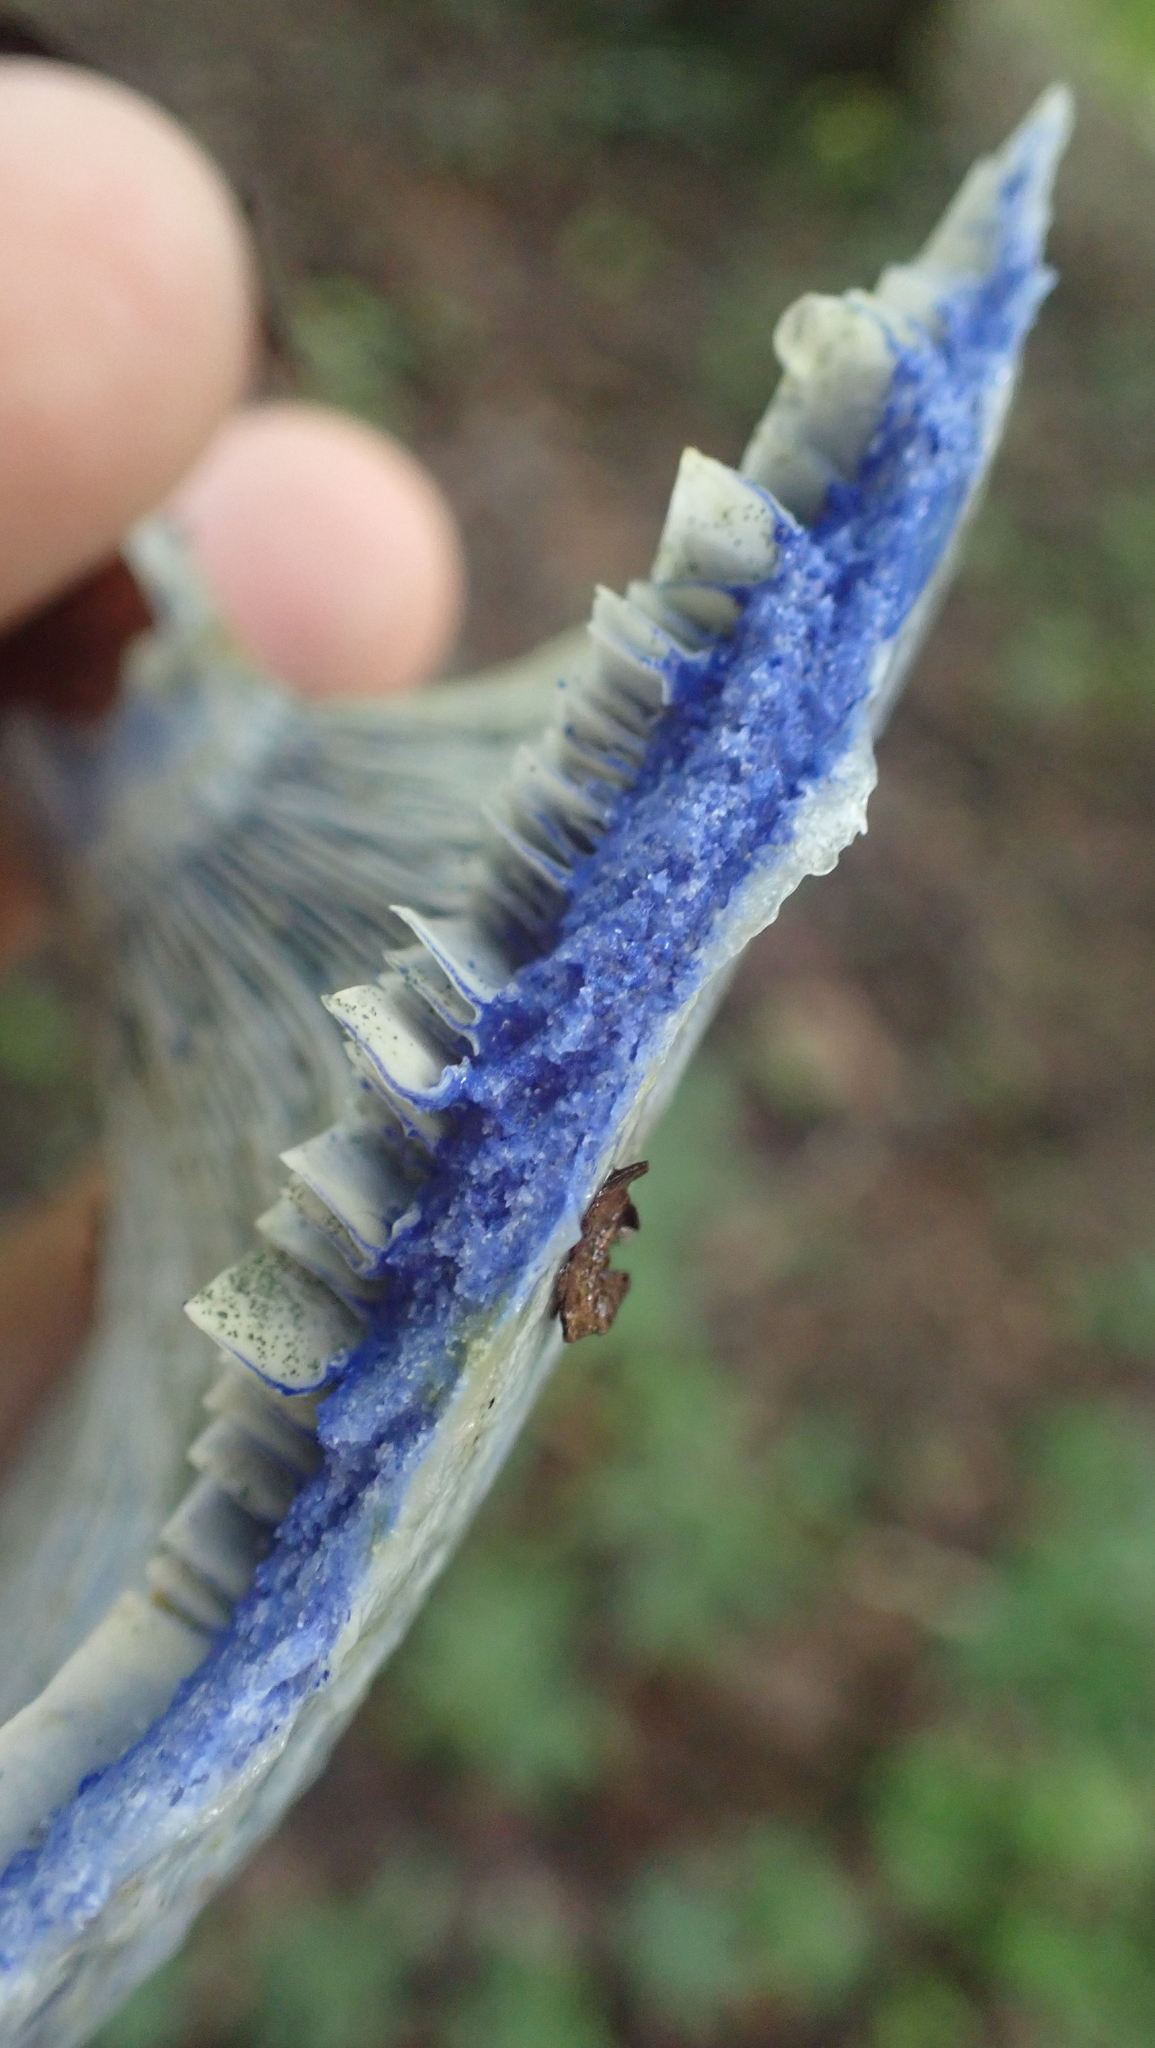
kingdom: Fungi
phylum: Basidiomycota
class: Agaricomycetes
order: Russulales
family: Russulaceae
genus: Lactarius
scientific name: Lactarius indigo
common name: Indigo milk cap
